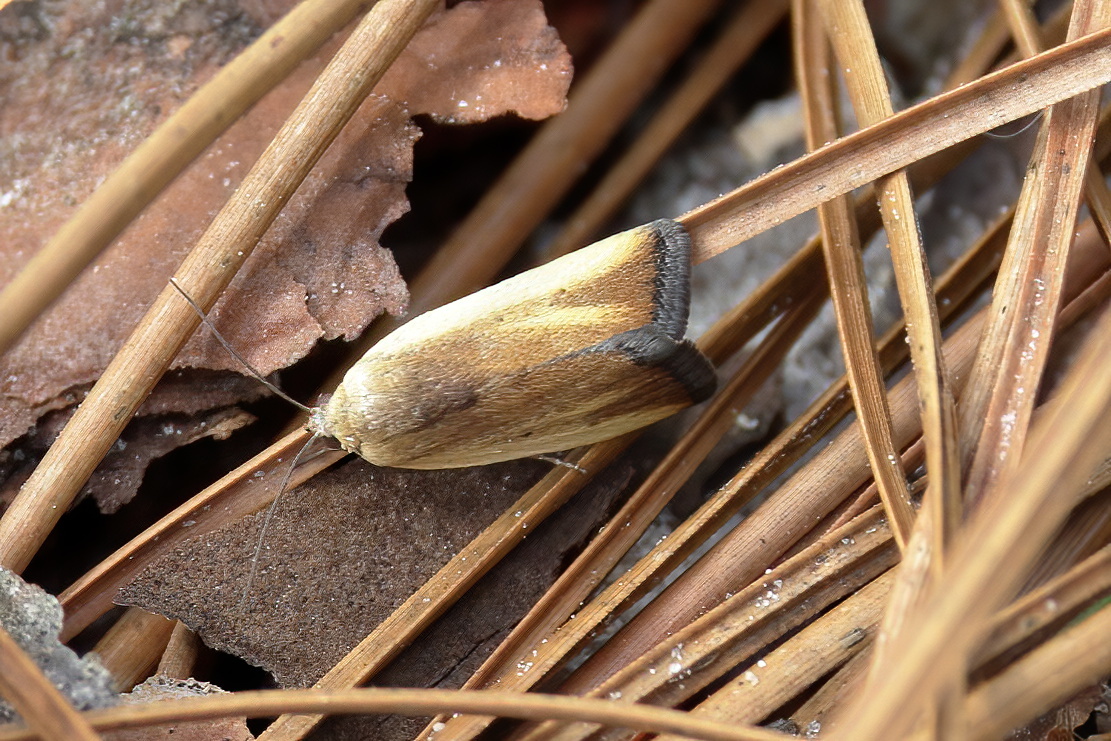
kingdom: Animalia
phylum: Arthropoda
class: Insecta
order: Lepidoptera
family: Noctuidae
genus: Acontia
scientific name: Acontia parvula
